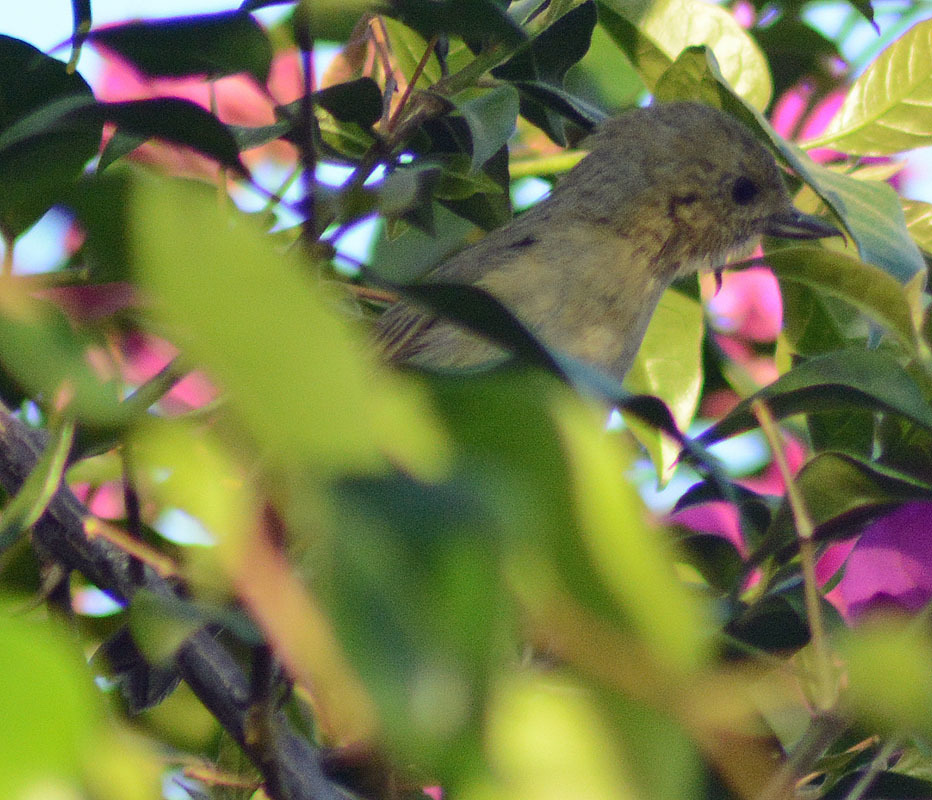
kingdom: Animalia
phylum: Chordata
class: Aves
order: Passeriformes
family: Thraupidae
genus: Diglossa
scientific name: Diglossa baritula
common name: Cinnamon-bellied flowerpiercer
